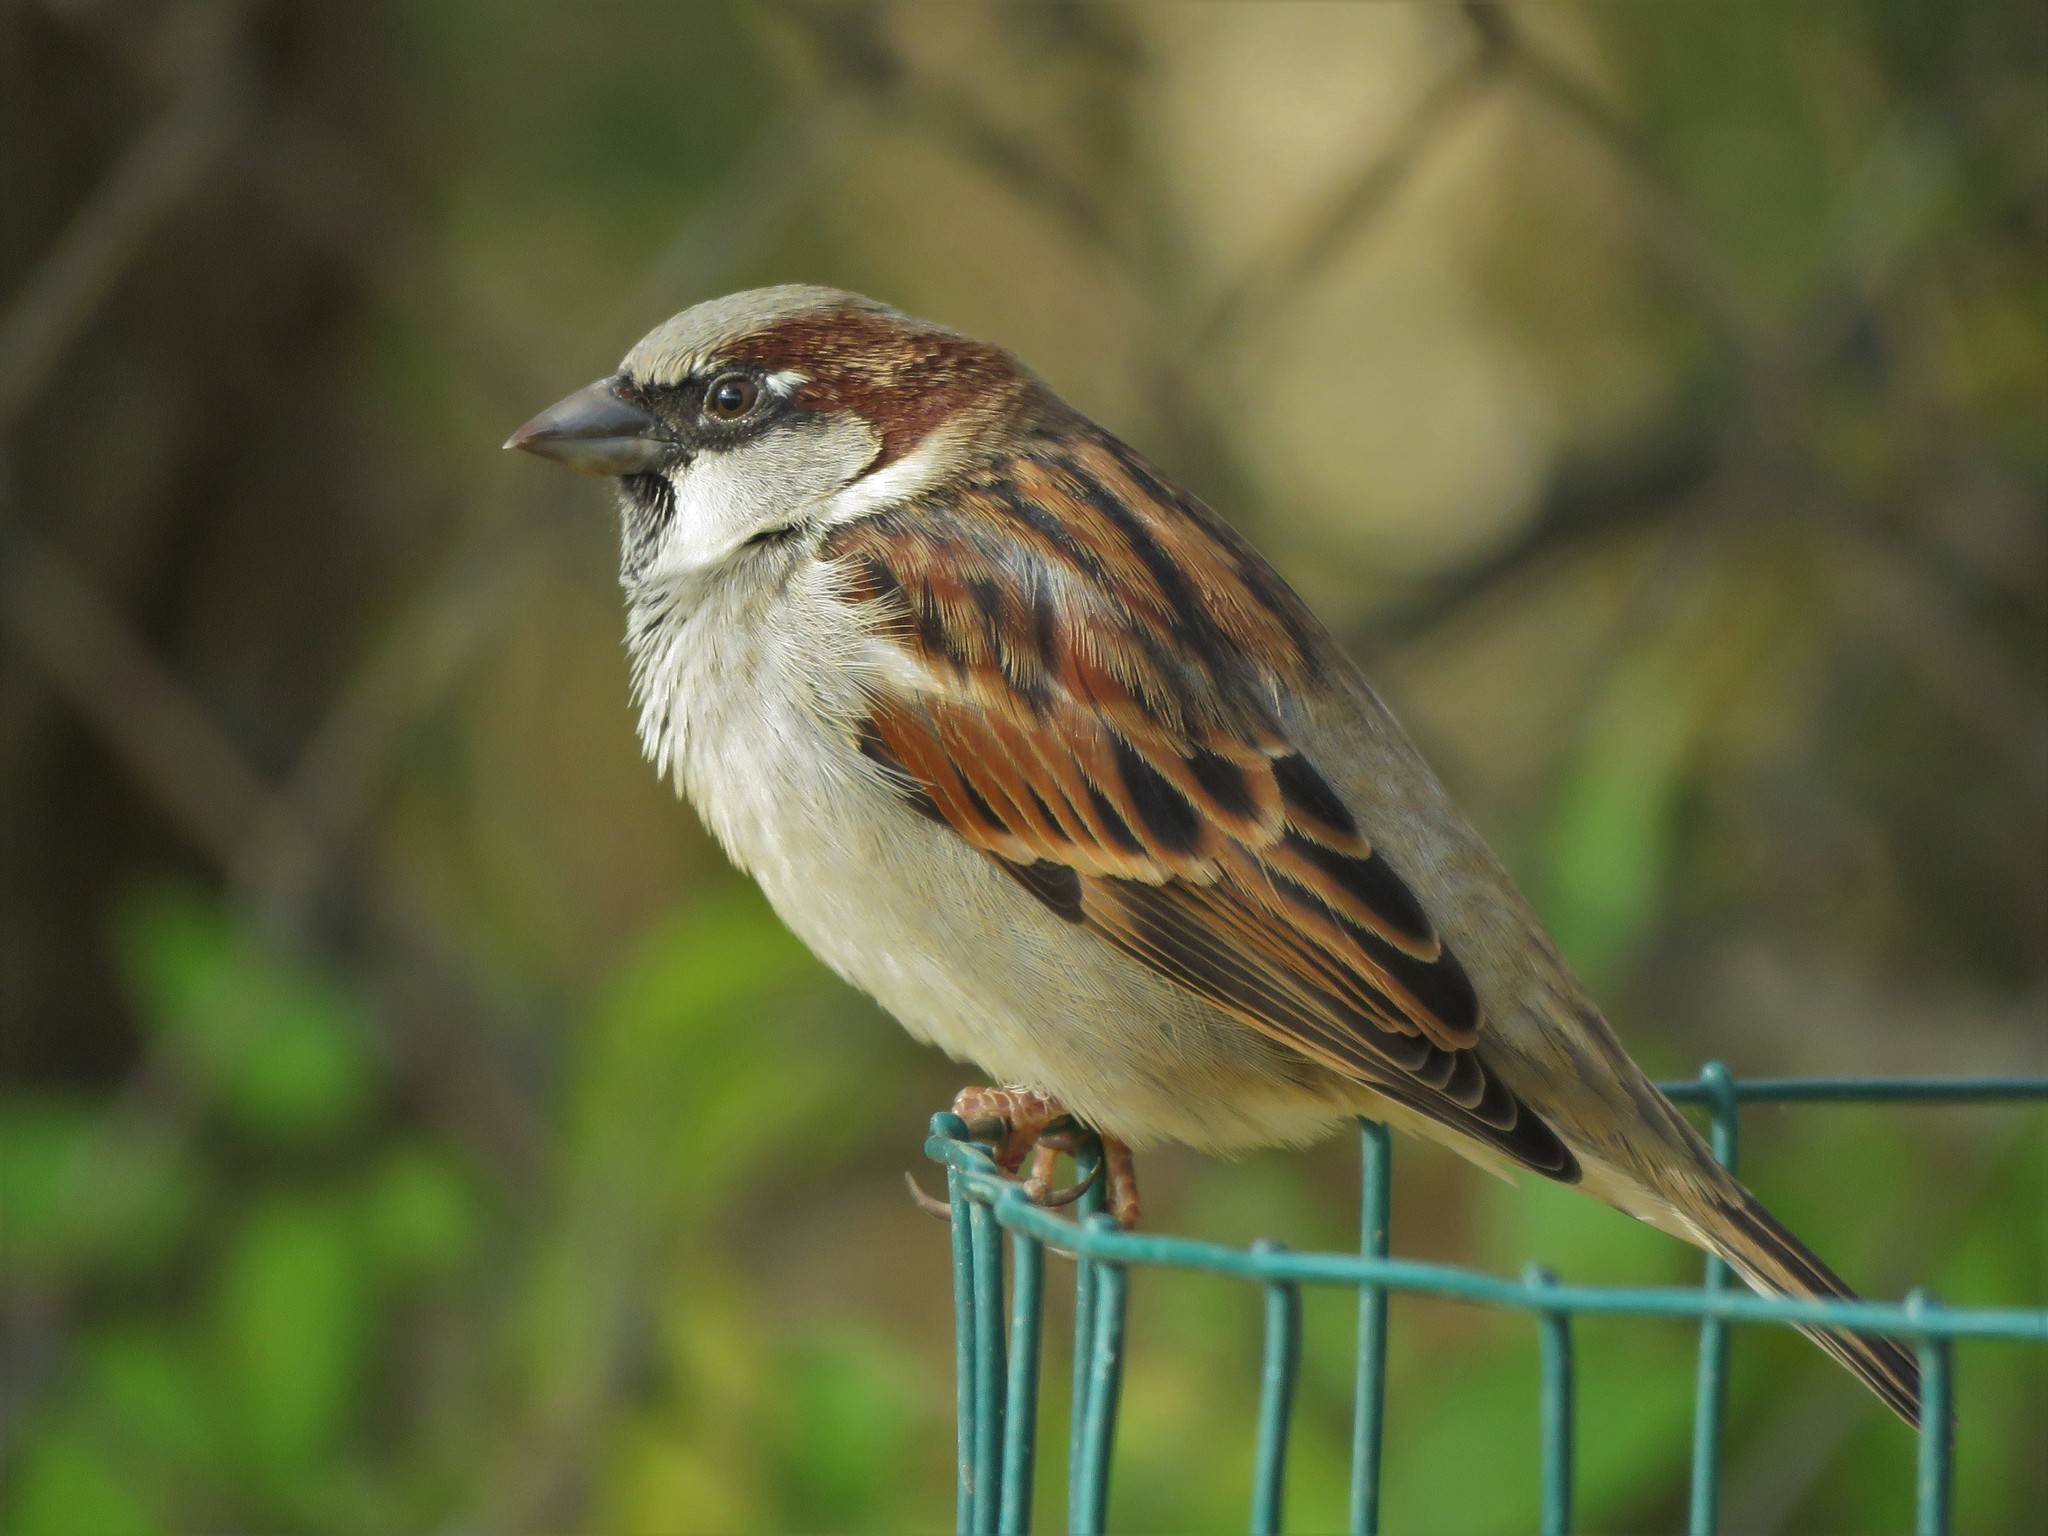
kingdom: Animalia
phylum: Chordata
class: Aves
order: Passeriformes
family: Passeridae
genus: Passer
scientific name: Passer domesticus
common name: House sparrow
